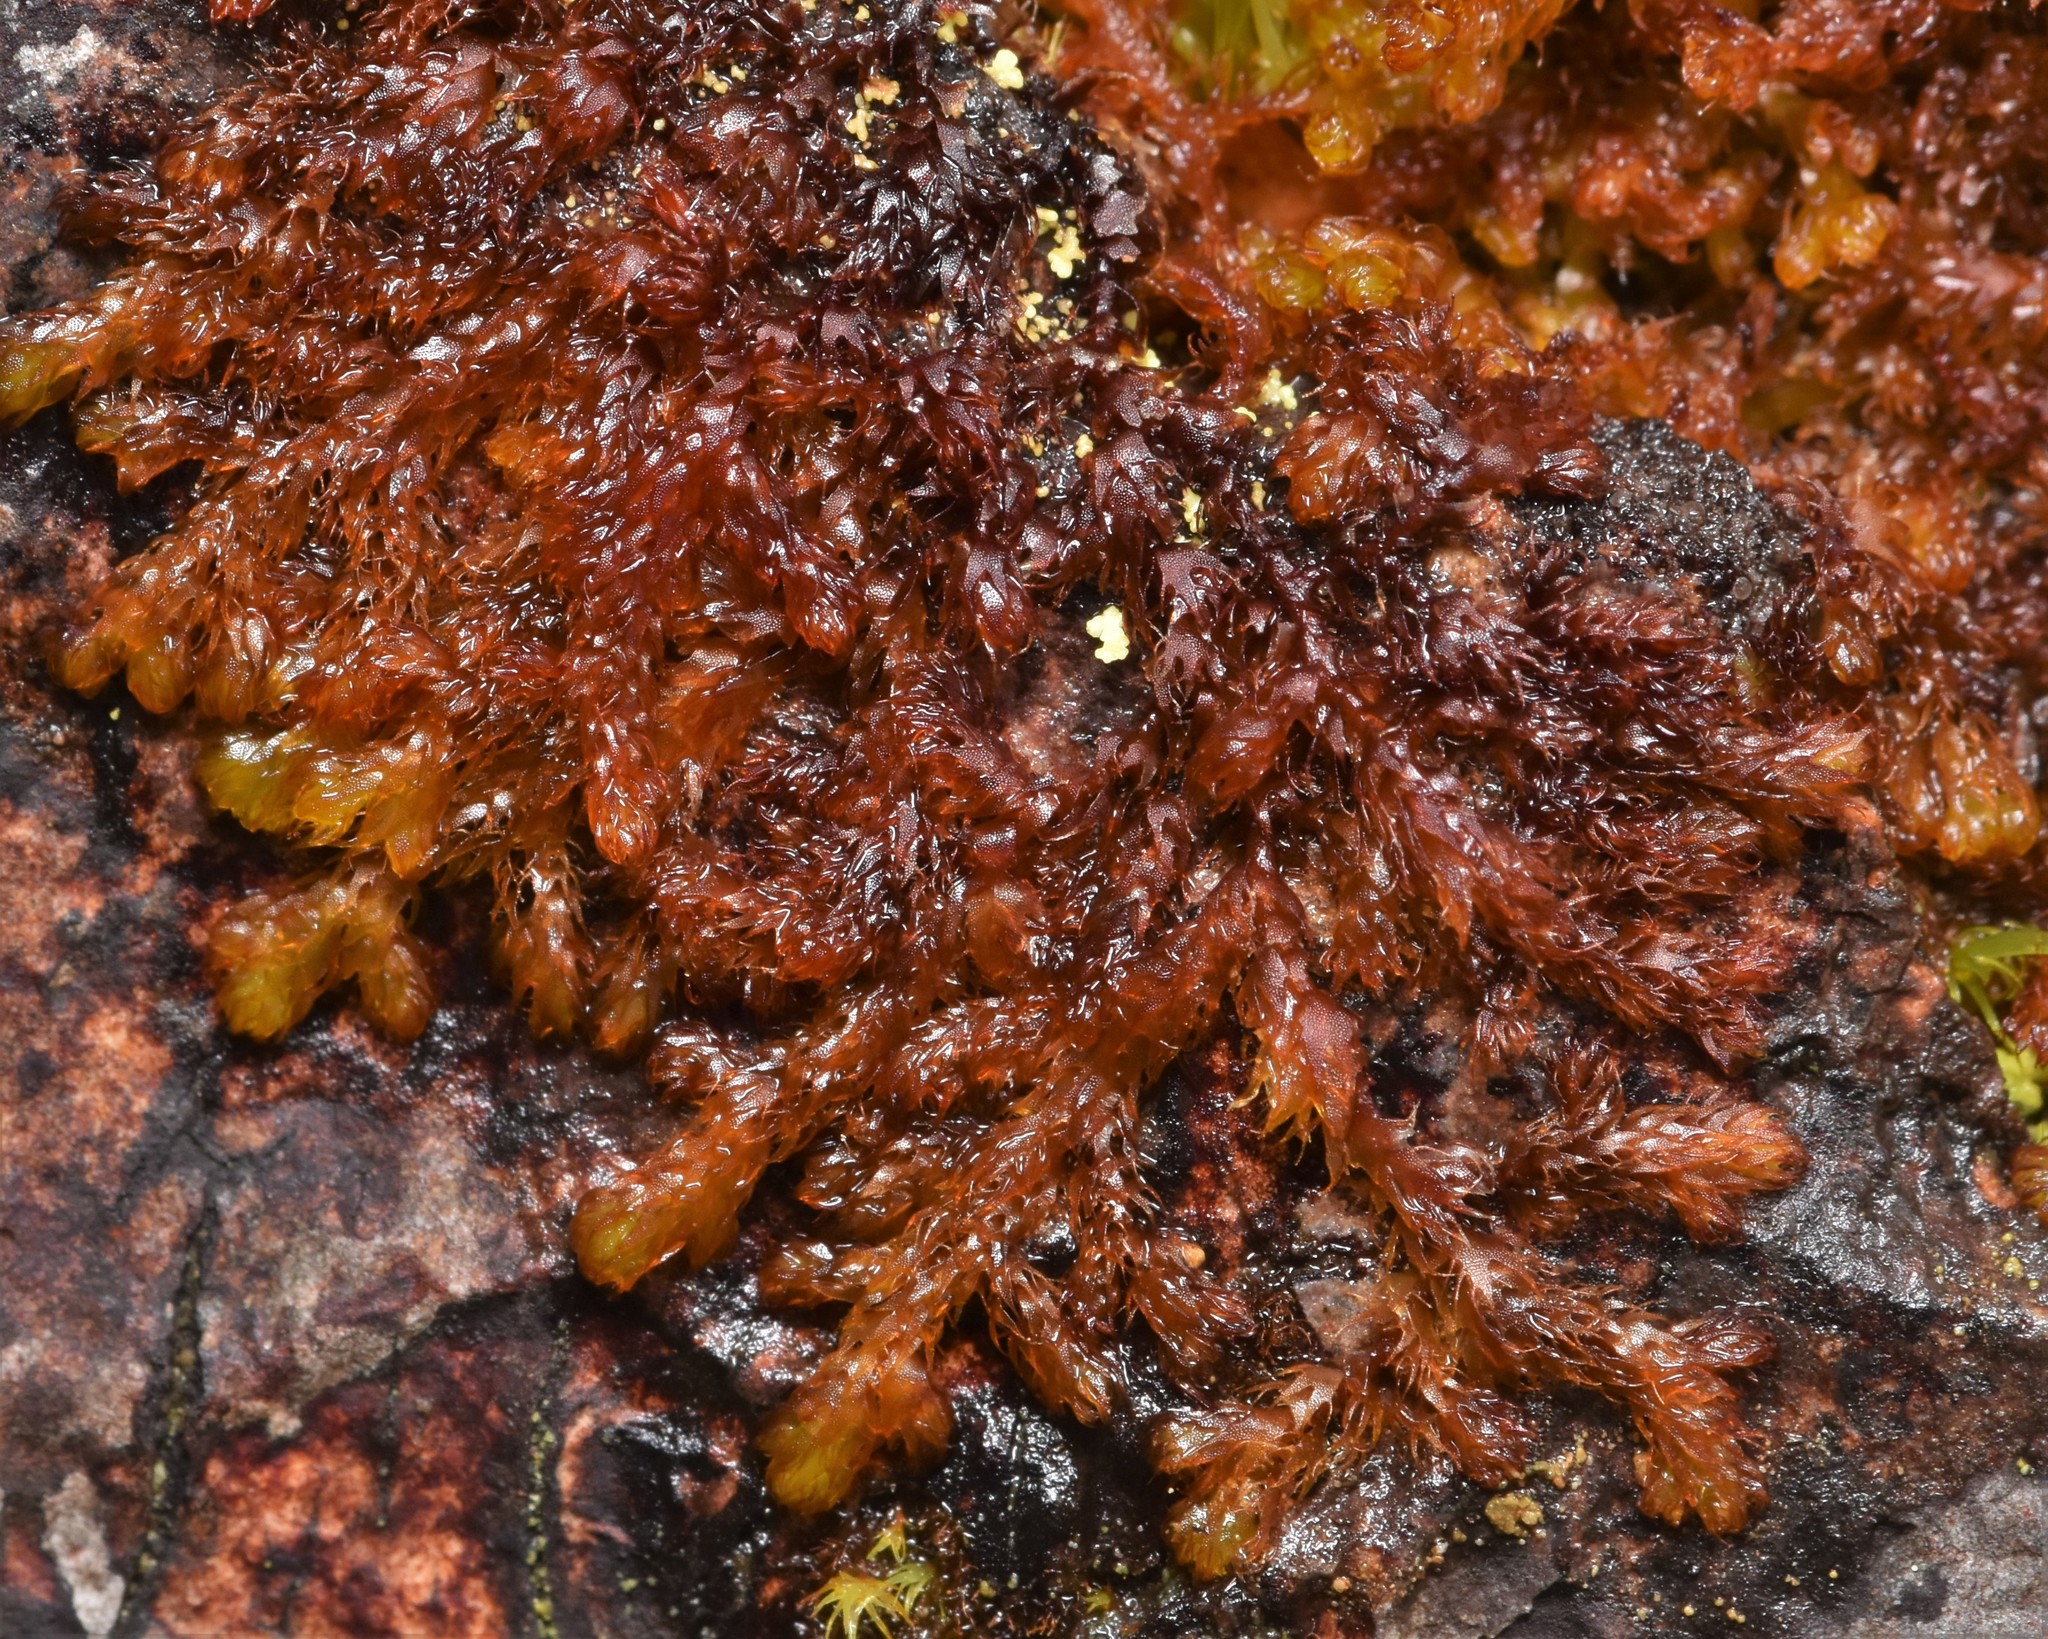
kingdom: Plantae
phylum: Marchantiophyta
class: Jungermanniopsida
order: Ptilidiales
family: Ptilidiaceae
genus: Ptilidium
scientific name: Ptilidium californicum
